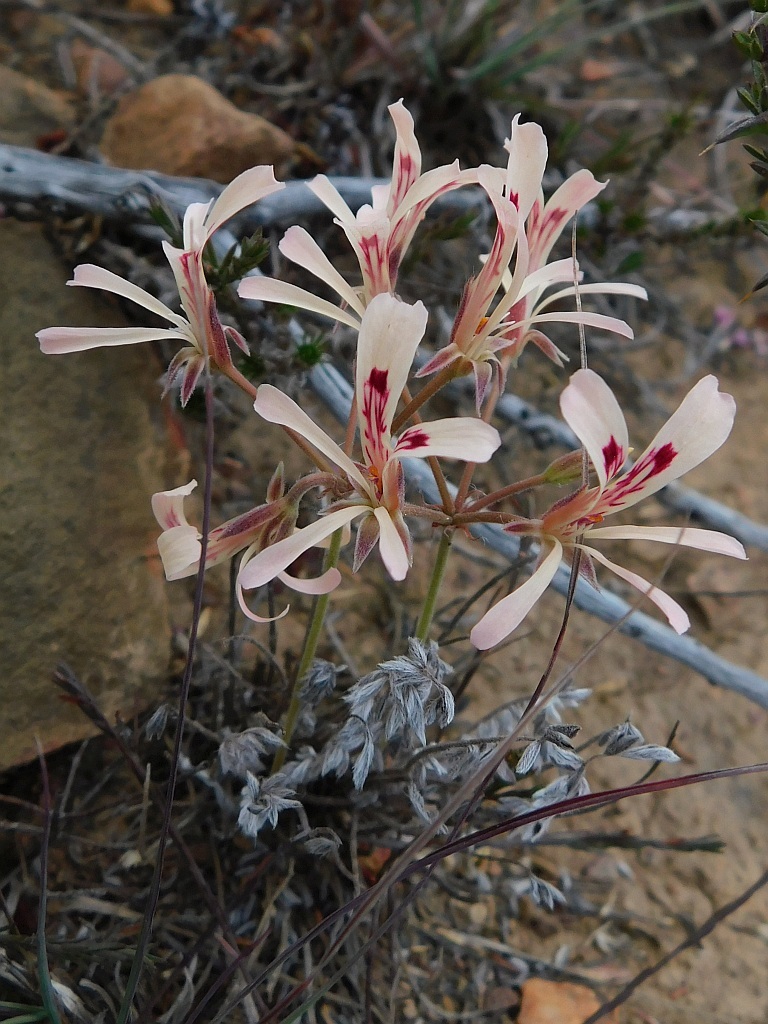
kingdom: Plantae
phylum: Tracheophyta
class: Magnoliopsida
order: Geraniales
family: Geraniaceae
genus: Pelargonium
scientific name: Pelargonium pinnatum
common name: Pinnated pelargonium
